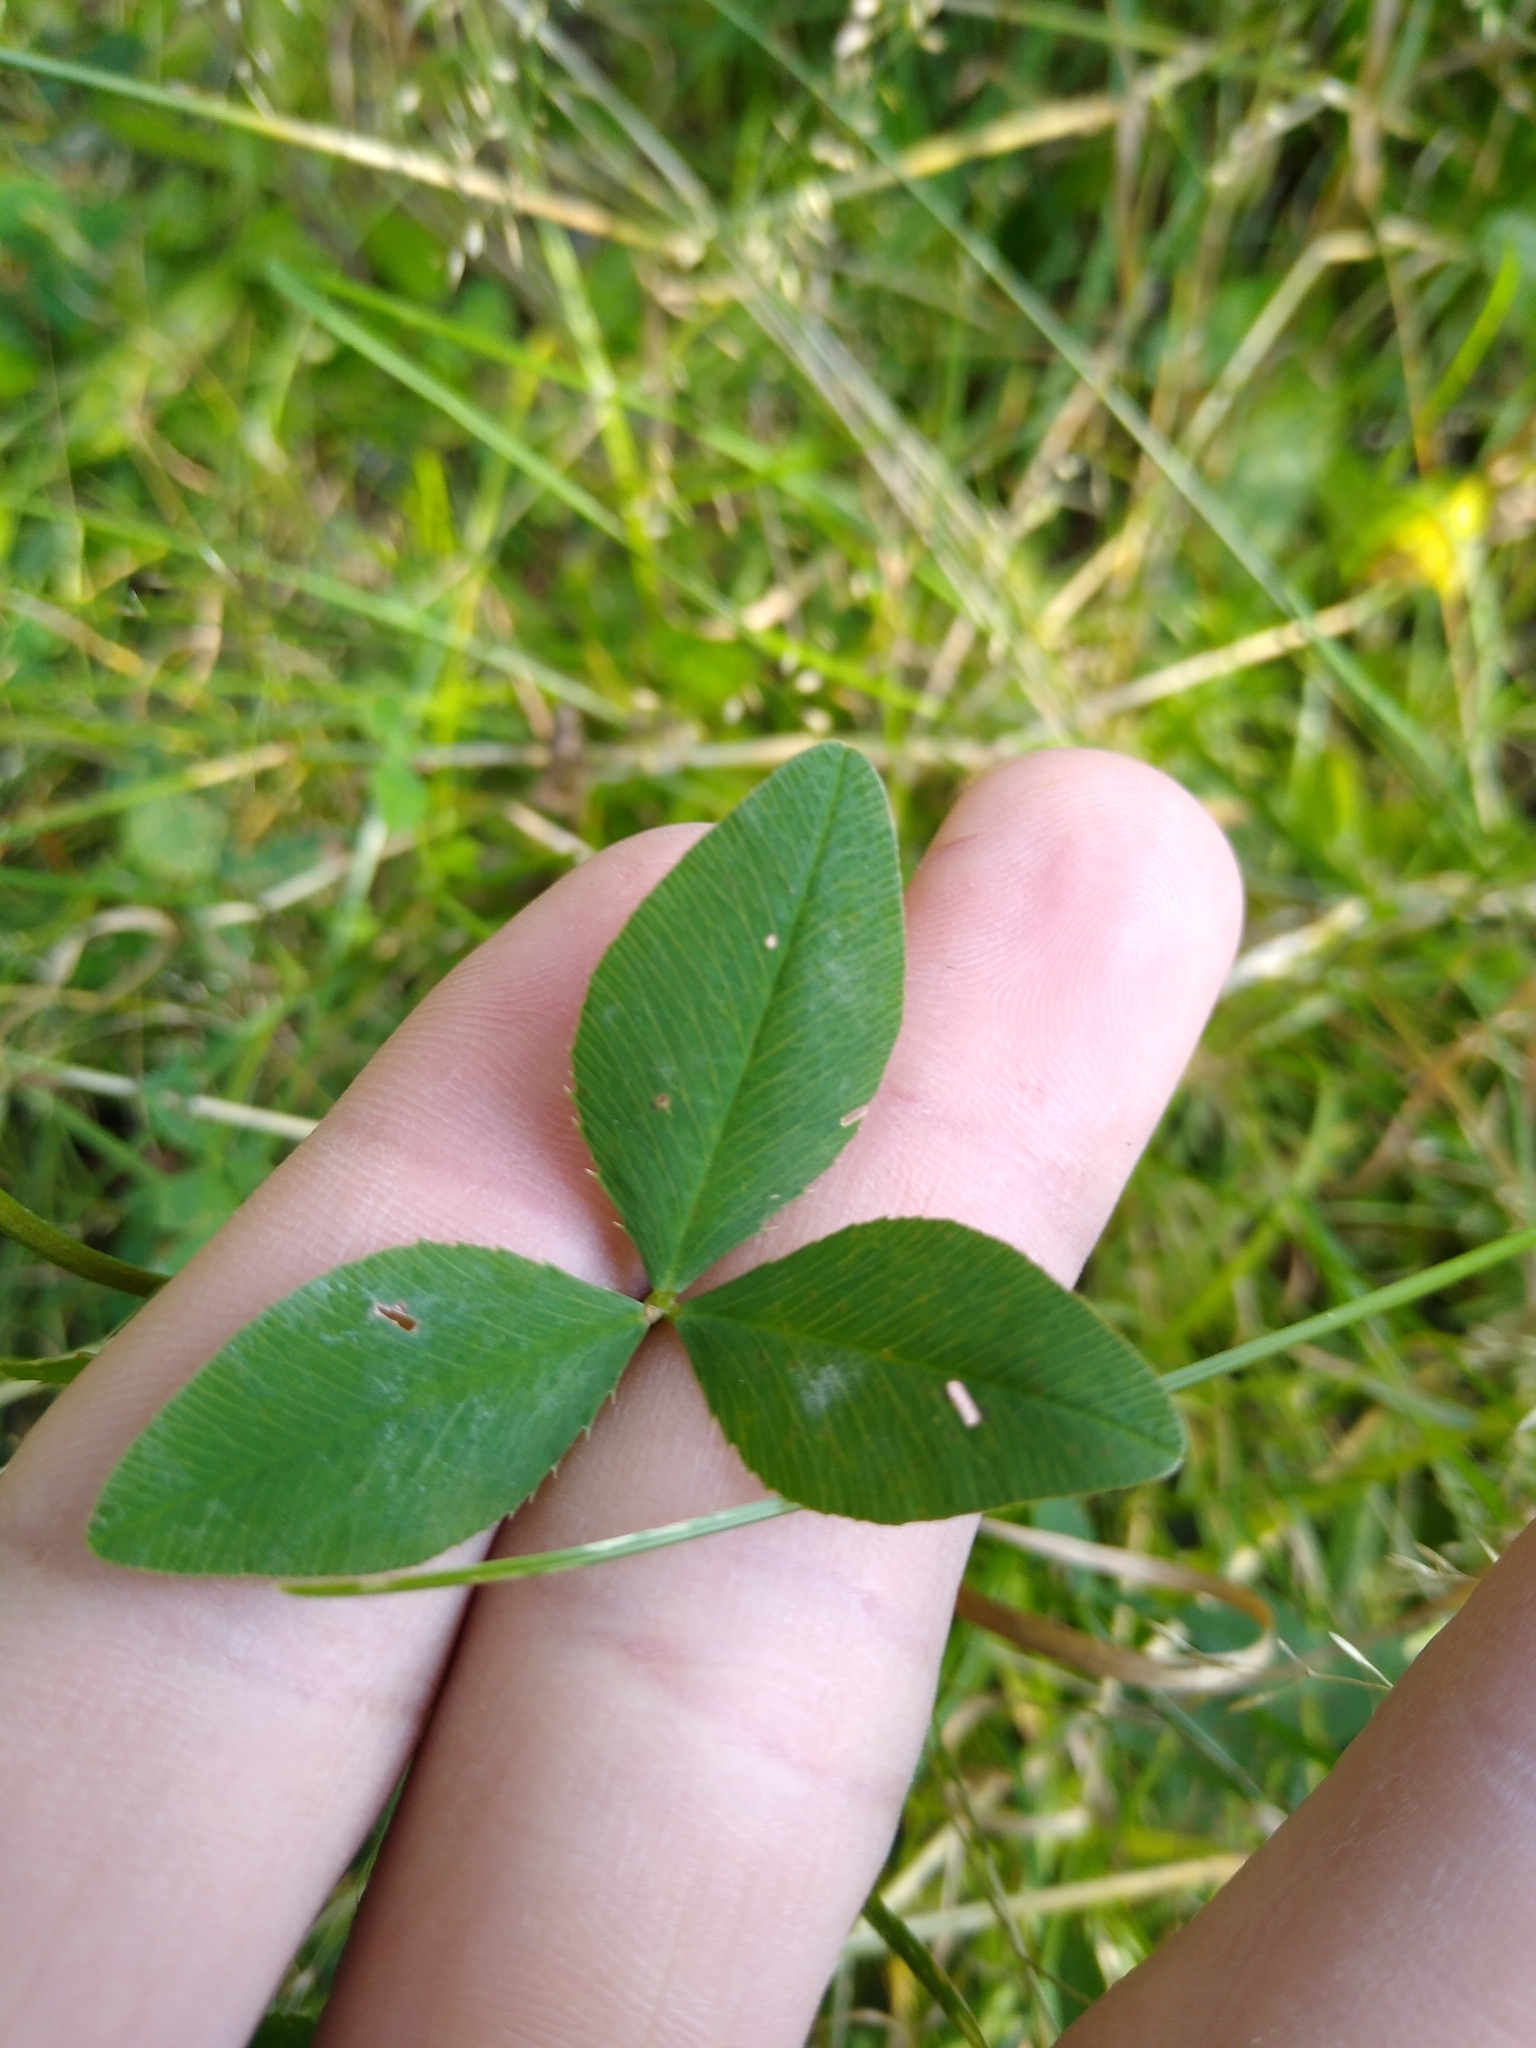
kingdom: Plantae
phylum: Tracheophyta
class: Magnoliopsida
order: Fabales
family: Fabaceae
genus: Trifolium
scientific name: Trifolium hybridum
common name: Alsike clover
